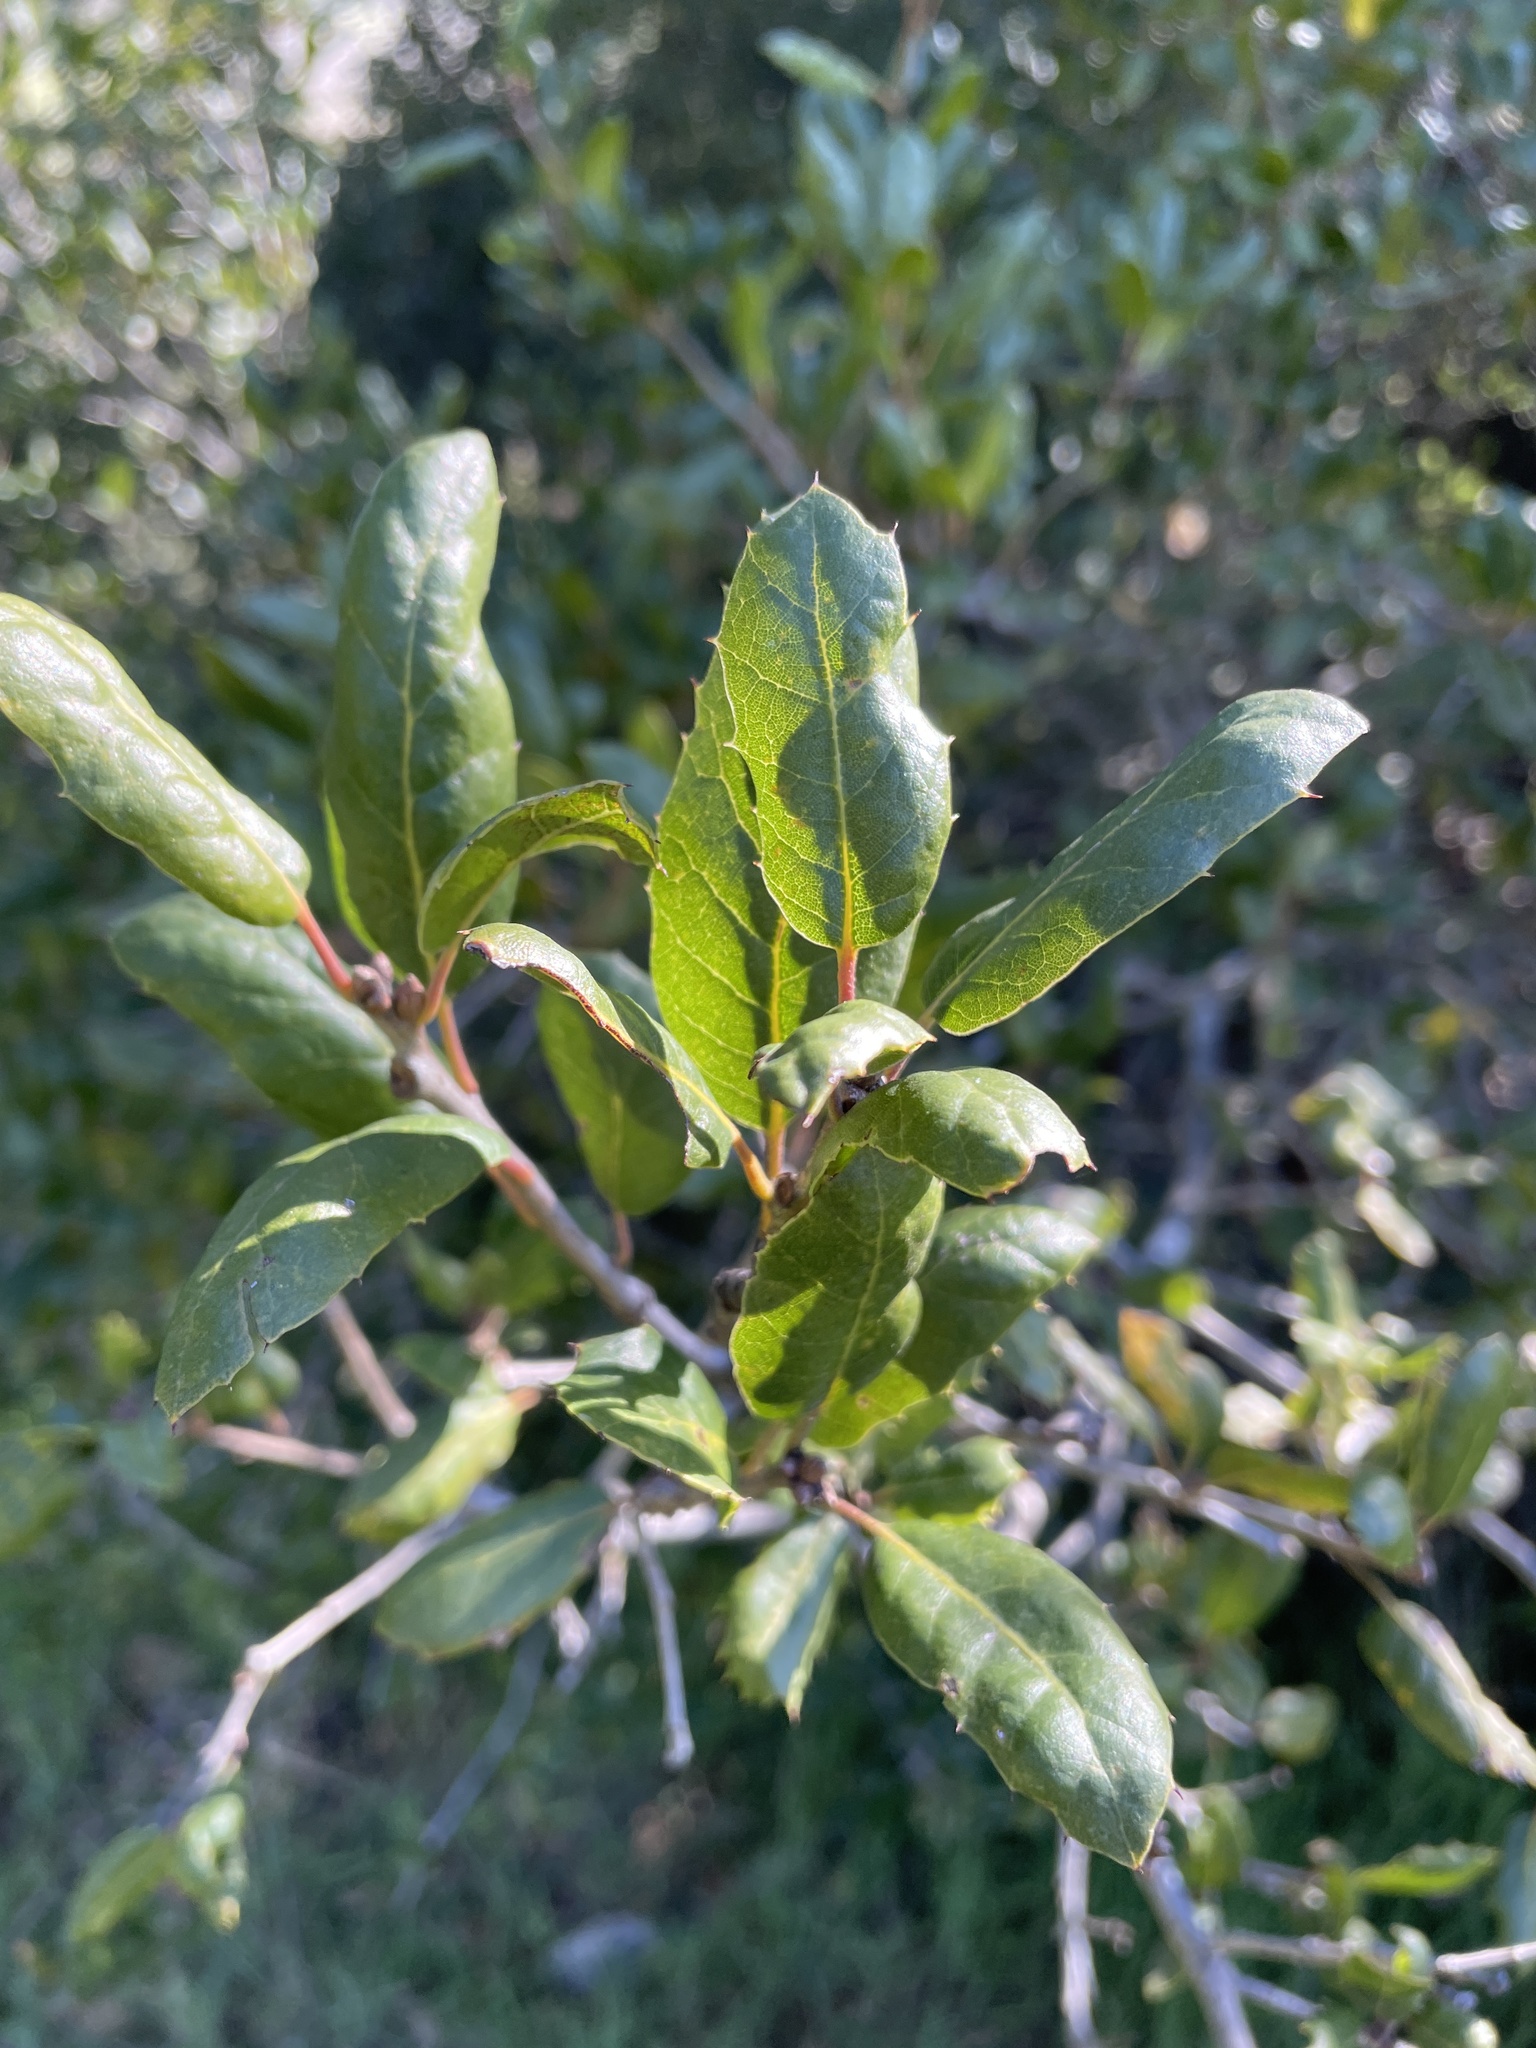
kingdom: Plantae
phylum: Tracheophyta
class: Magnoliopsida
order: Fagales
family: Fagaceae
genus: Quercus
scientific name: Quercus agrifolia
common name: California live oak
